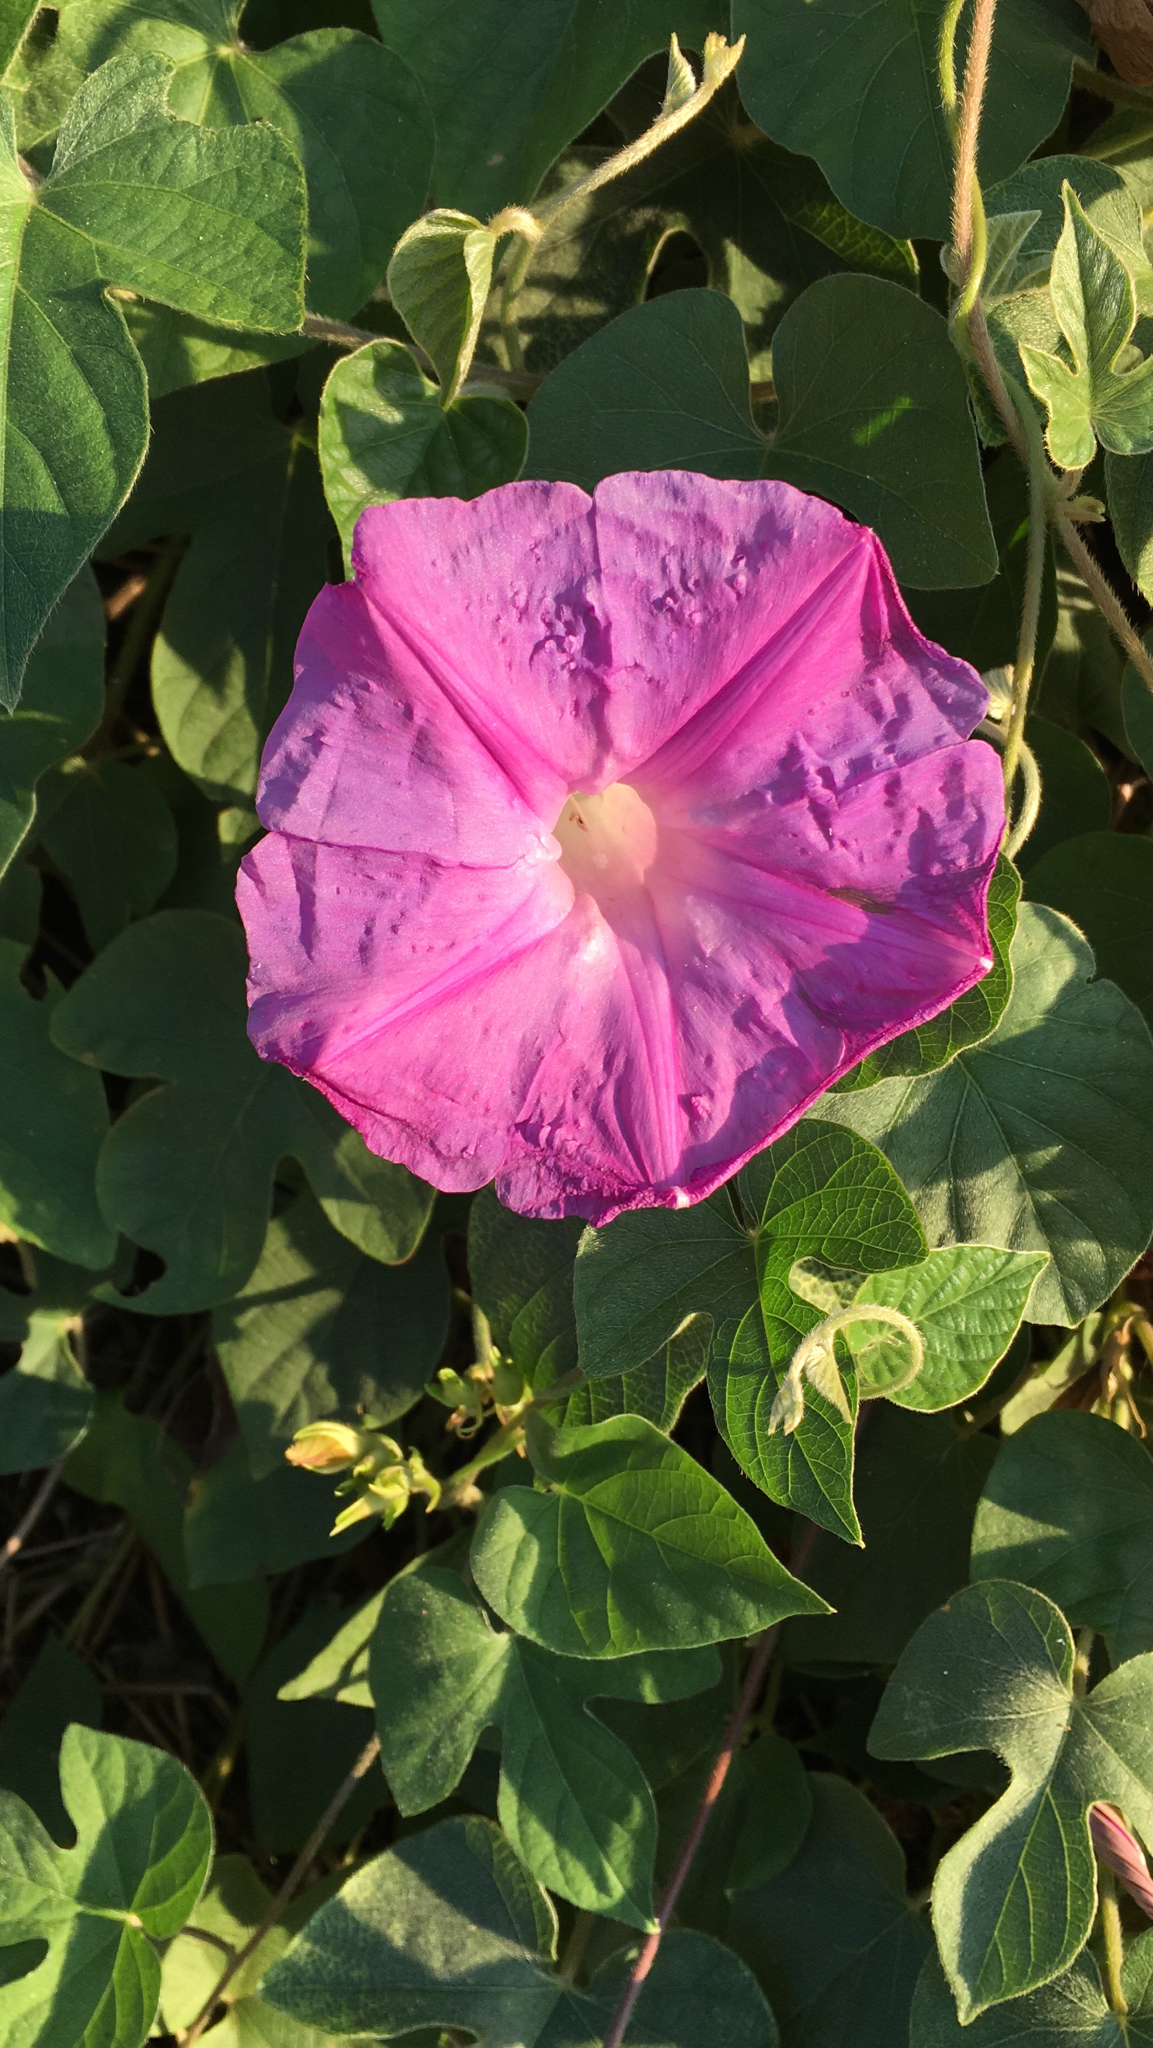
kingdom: Plantae
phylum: Tracheophyta
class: Magnoliopsida
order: Solanales
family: Convolvulaceae
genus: Ipomoea
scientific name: Ipomoea indica
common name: Blue dawnflower
